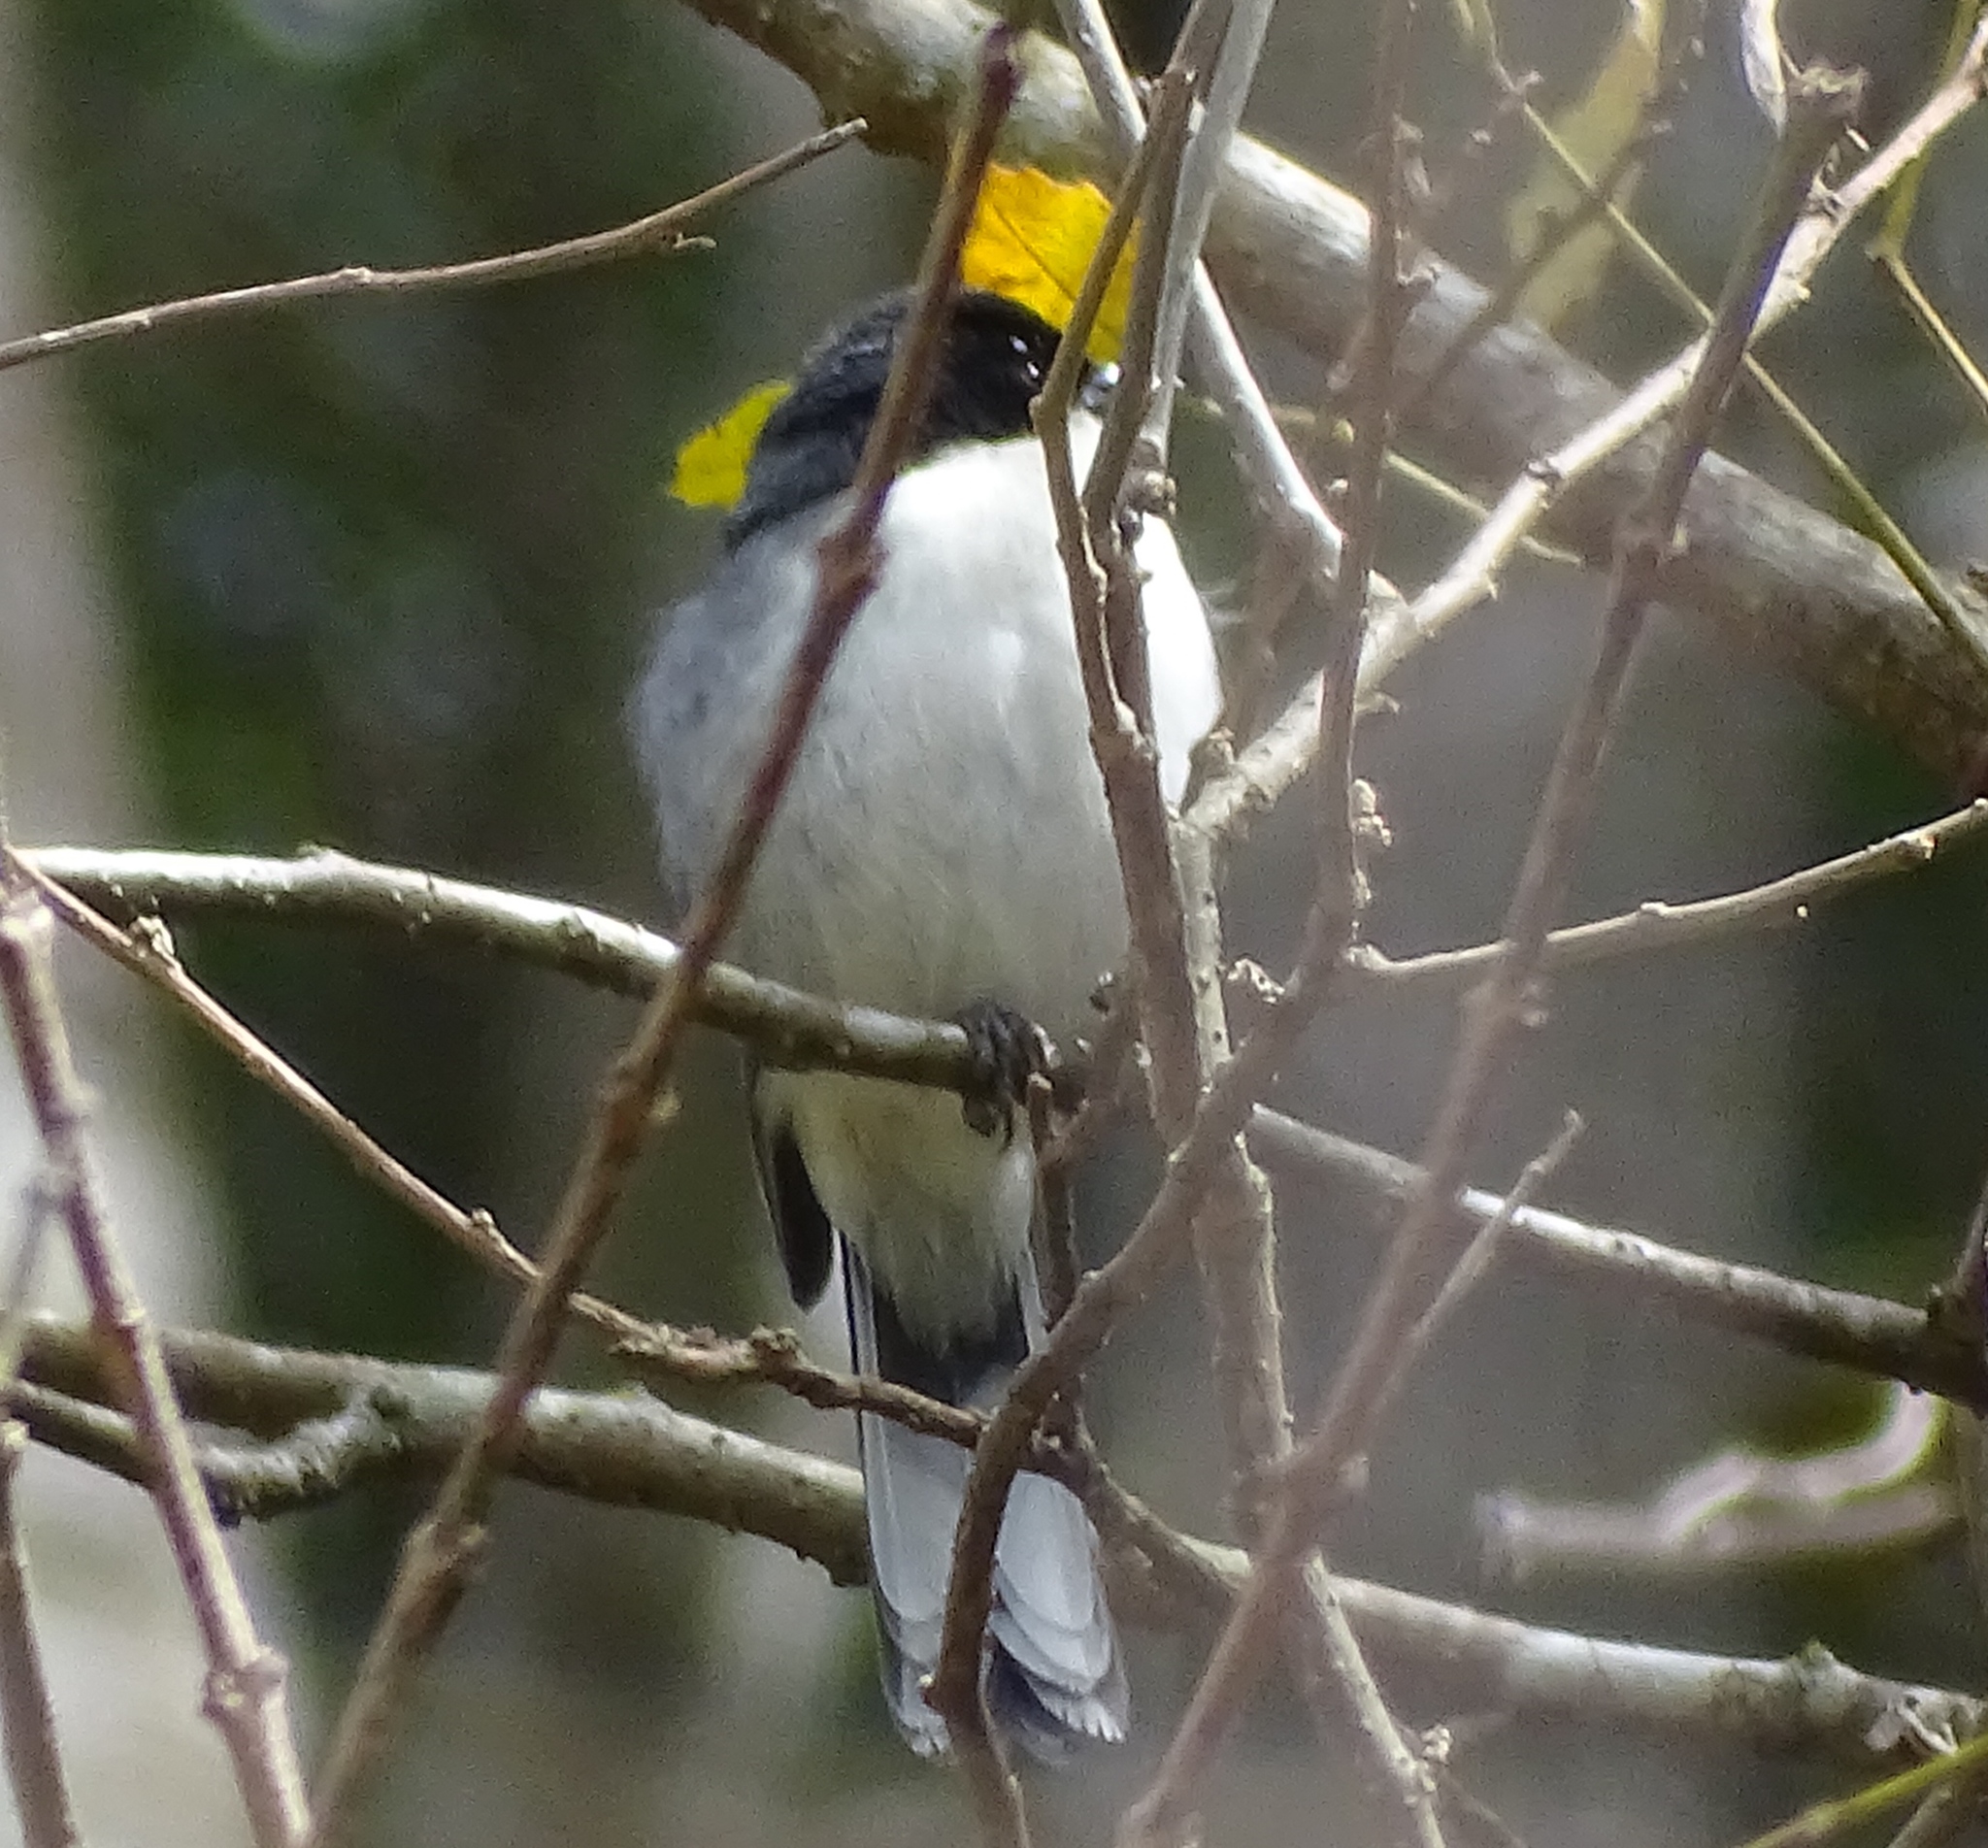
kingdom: Animalia
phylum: Chordata
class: Aves
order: Passeriformes
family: Thraupidae
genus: Microspingus
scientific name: Microspingus melanoleucus
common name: Black-capped warbling-finch
